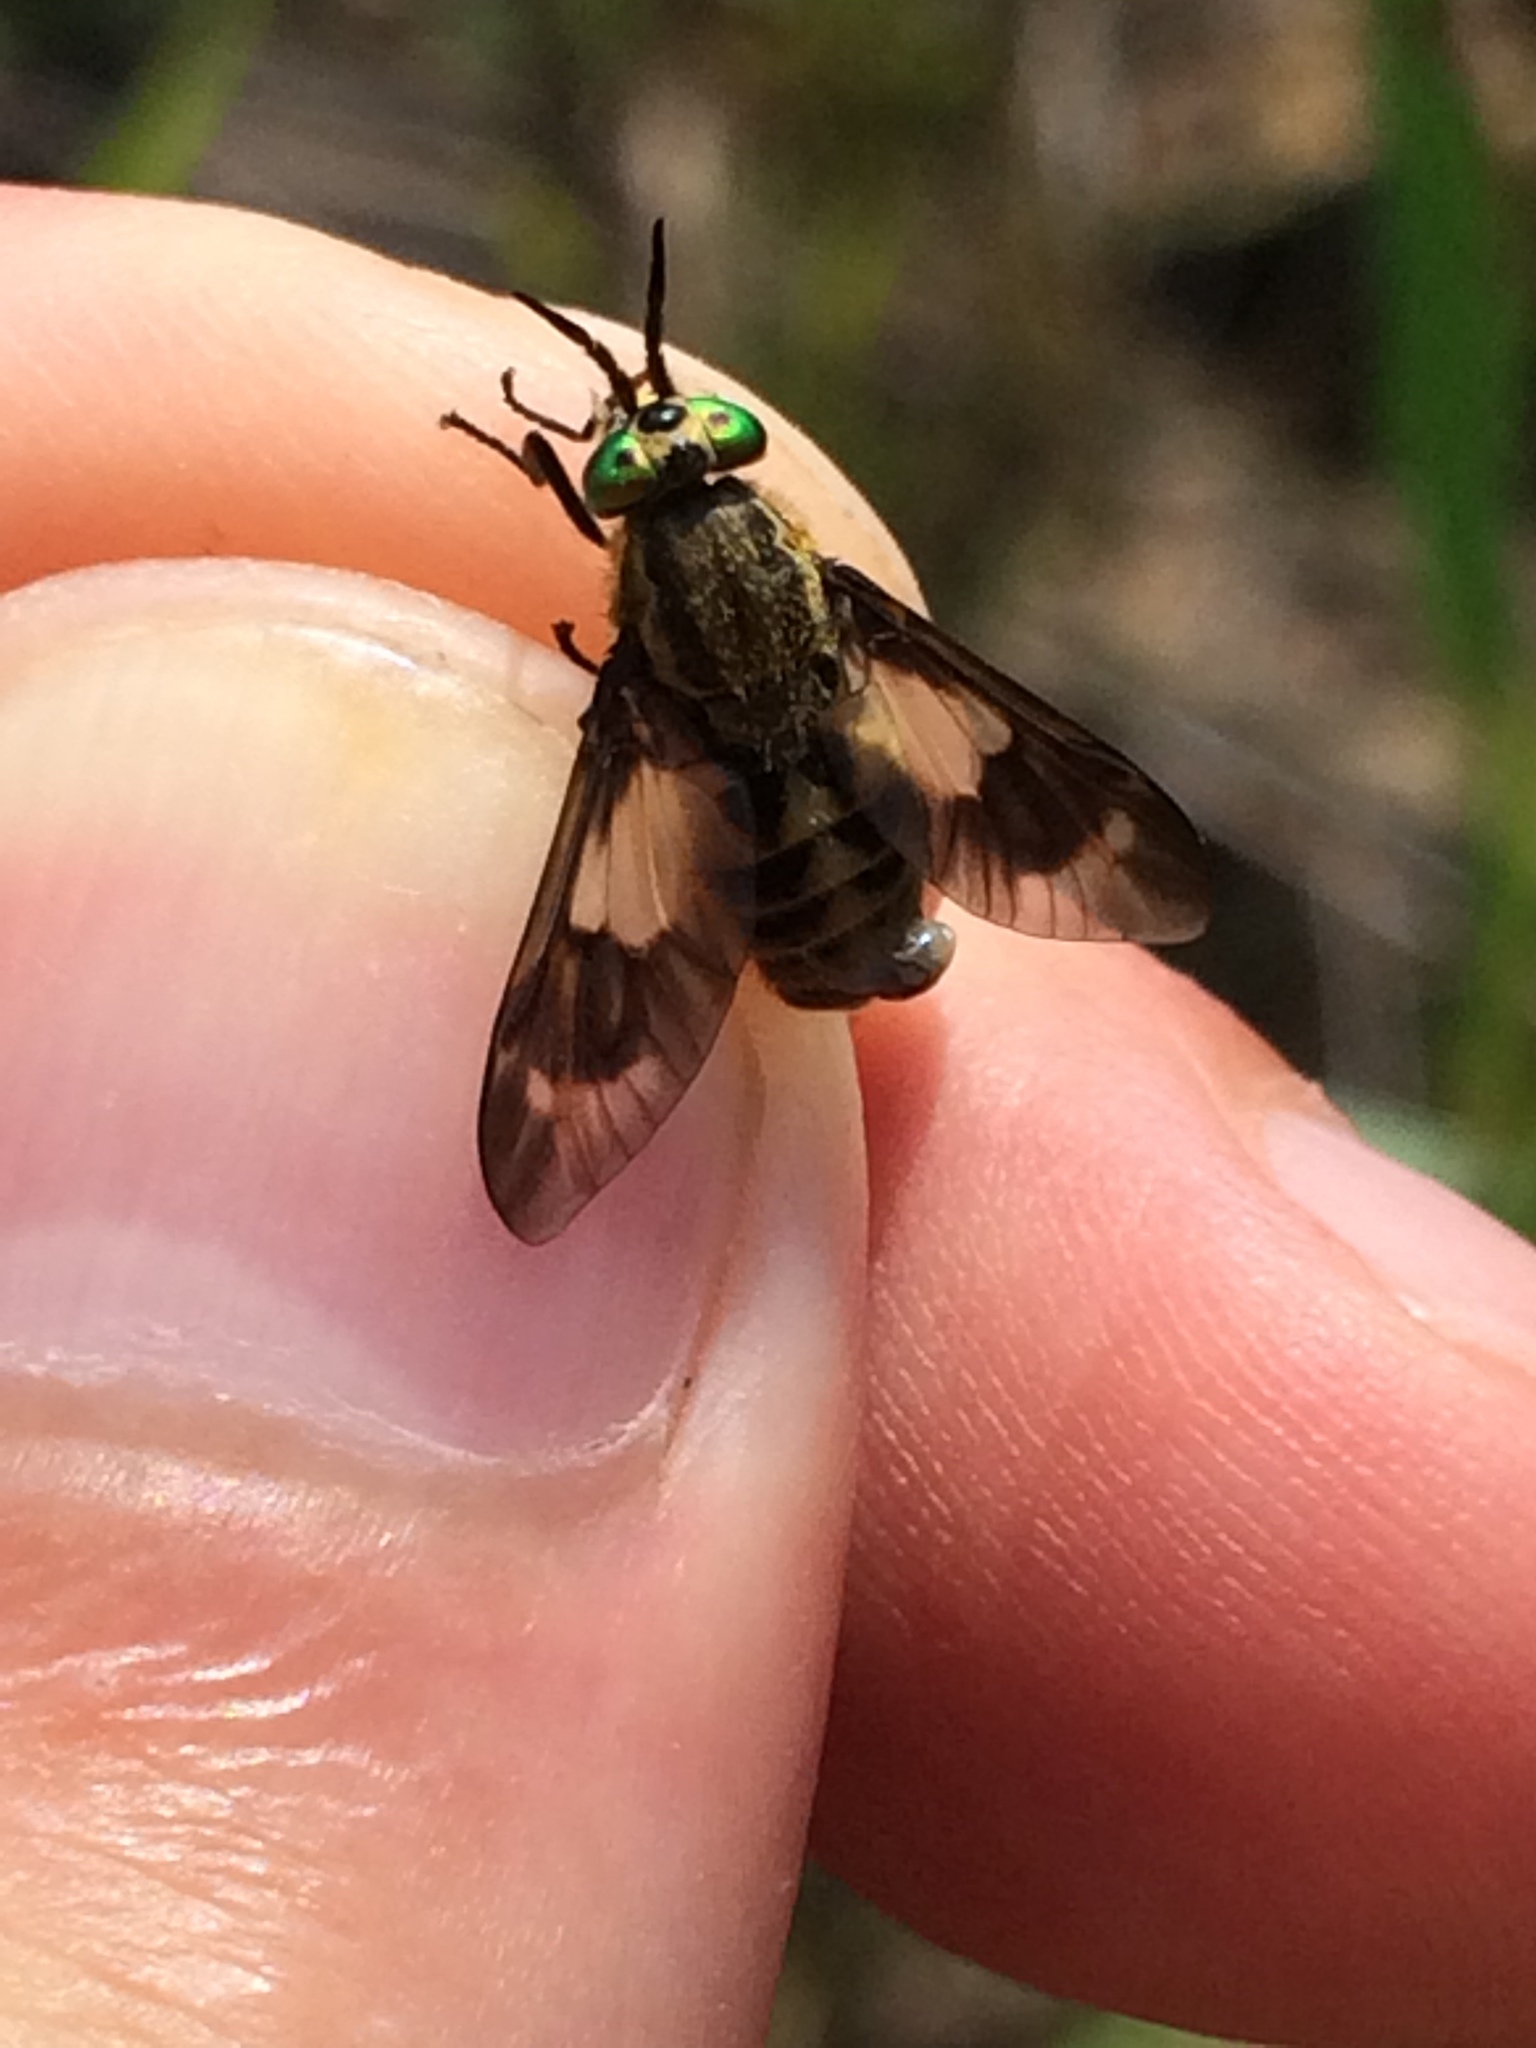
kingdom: Animalia
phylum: Arthropoda
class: Insecta
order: Diptera
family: Tabanidae
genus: Chrysops
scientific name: Chrysops relictus
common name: Twin-lobed deerfly
